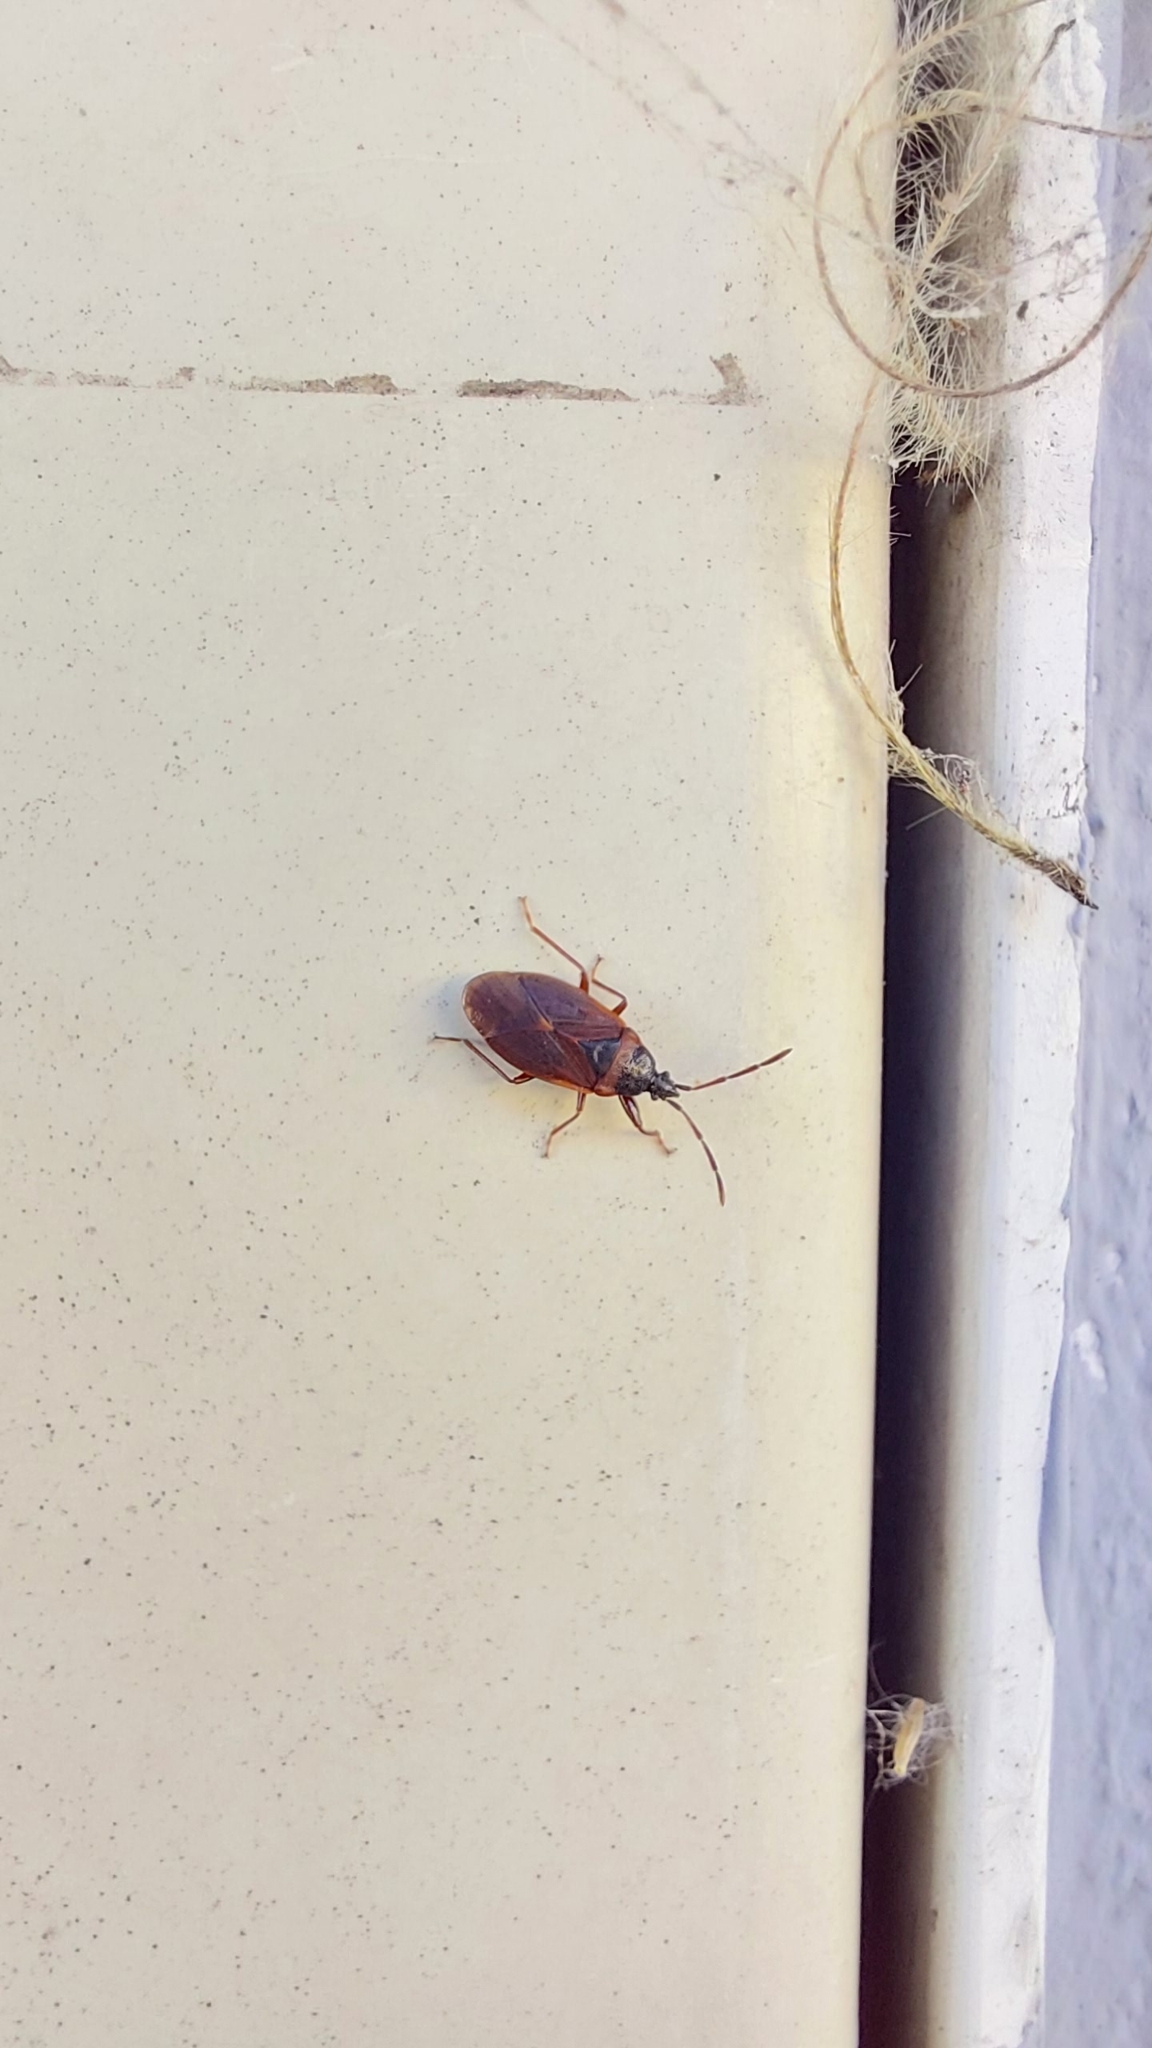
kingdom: Animalia
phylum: Arthropoda
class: Insecta
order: Hemiptera
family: Rhyparochromidae
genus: Gastrodes
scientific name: Gastrodes grossipes
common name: Pine cone bug
